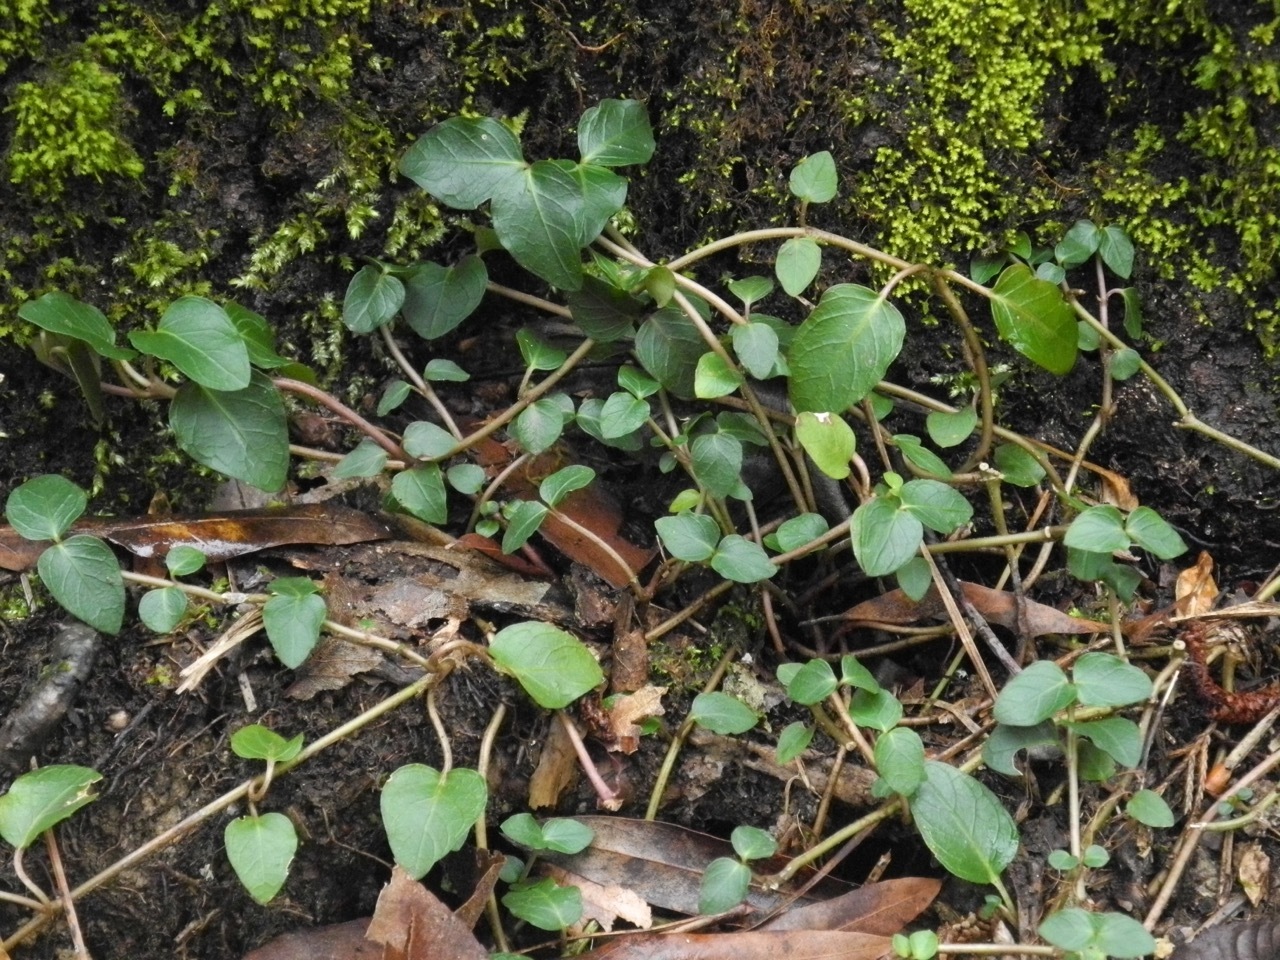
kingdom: Plantae
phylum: Tracheophyta
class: Magnoliopsida
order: Gentianales
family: Rubiaceae
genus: Mitchella
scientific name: Mitchella repens
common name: Partridge-berry
